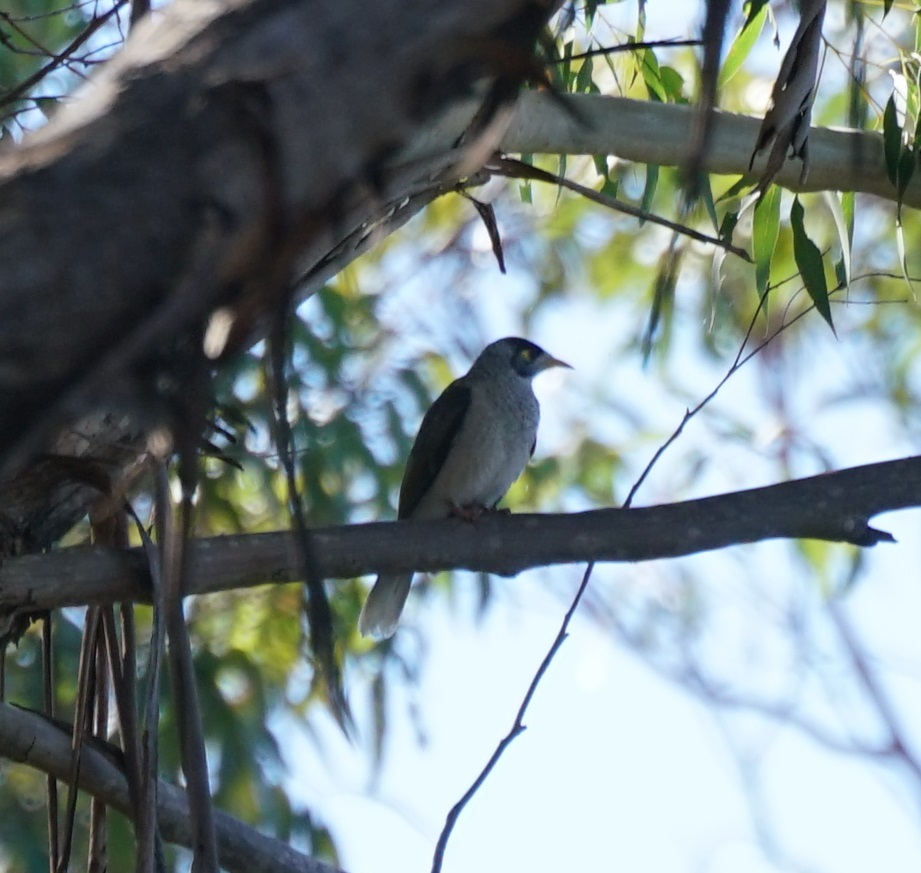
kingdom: Animalia
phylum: Chordata
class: Aves
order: Passeriformes
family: Meliphagidae
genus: Manorina
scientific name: Manorina melanocephala
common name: Noisy miner
